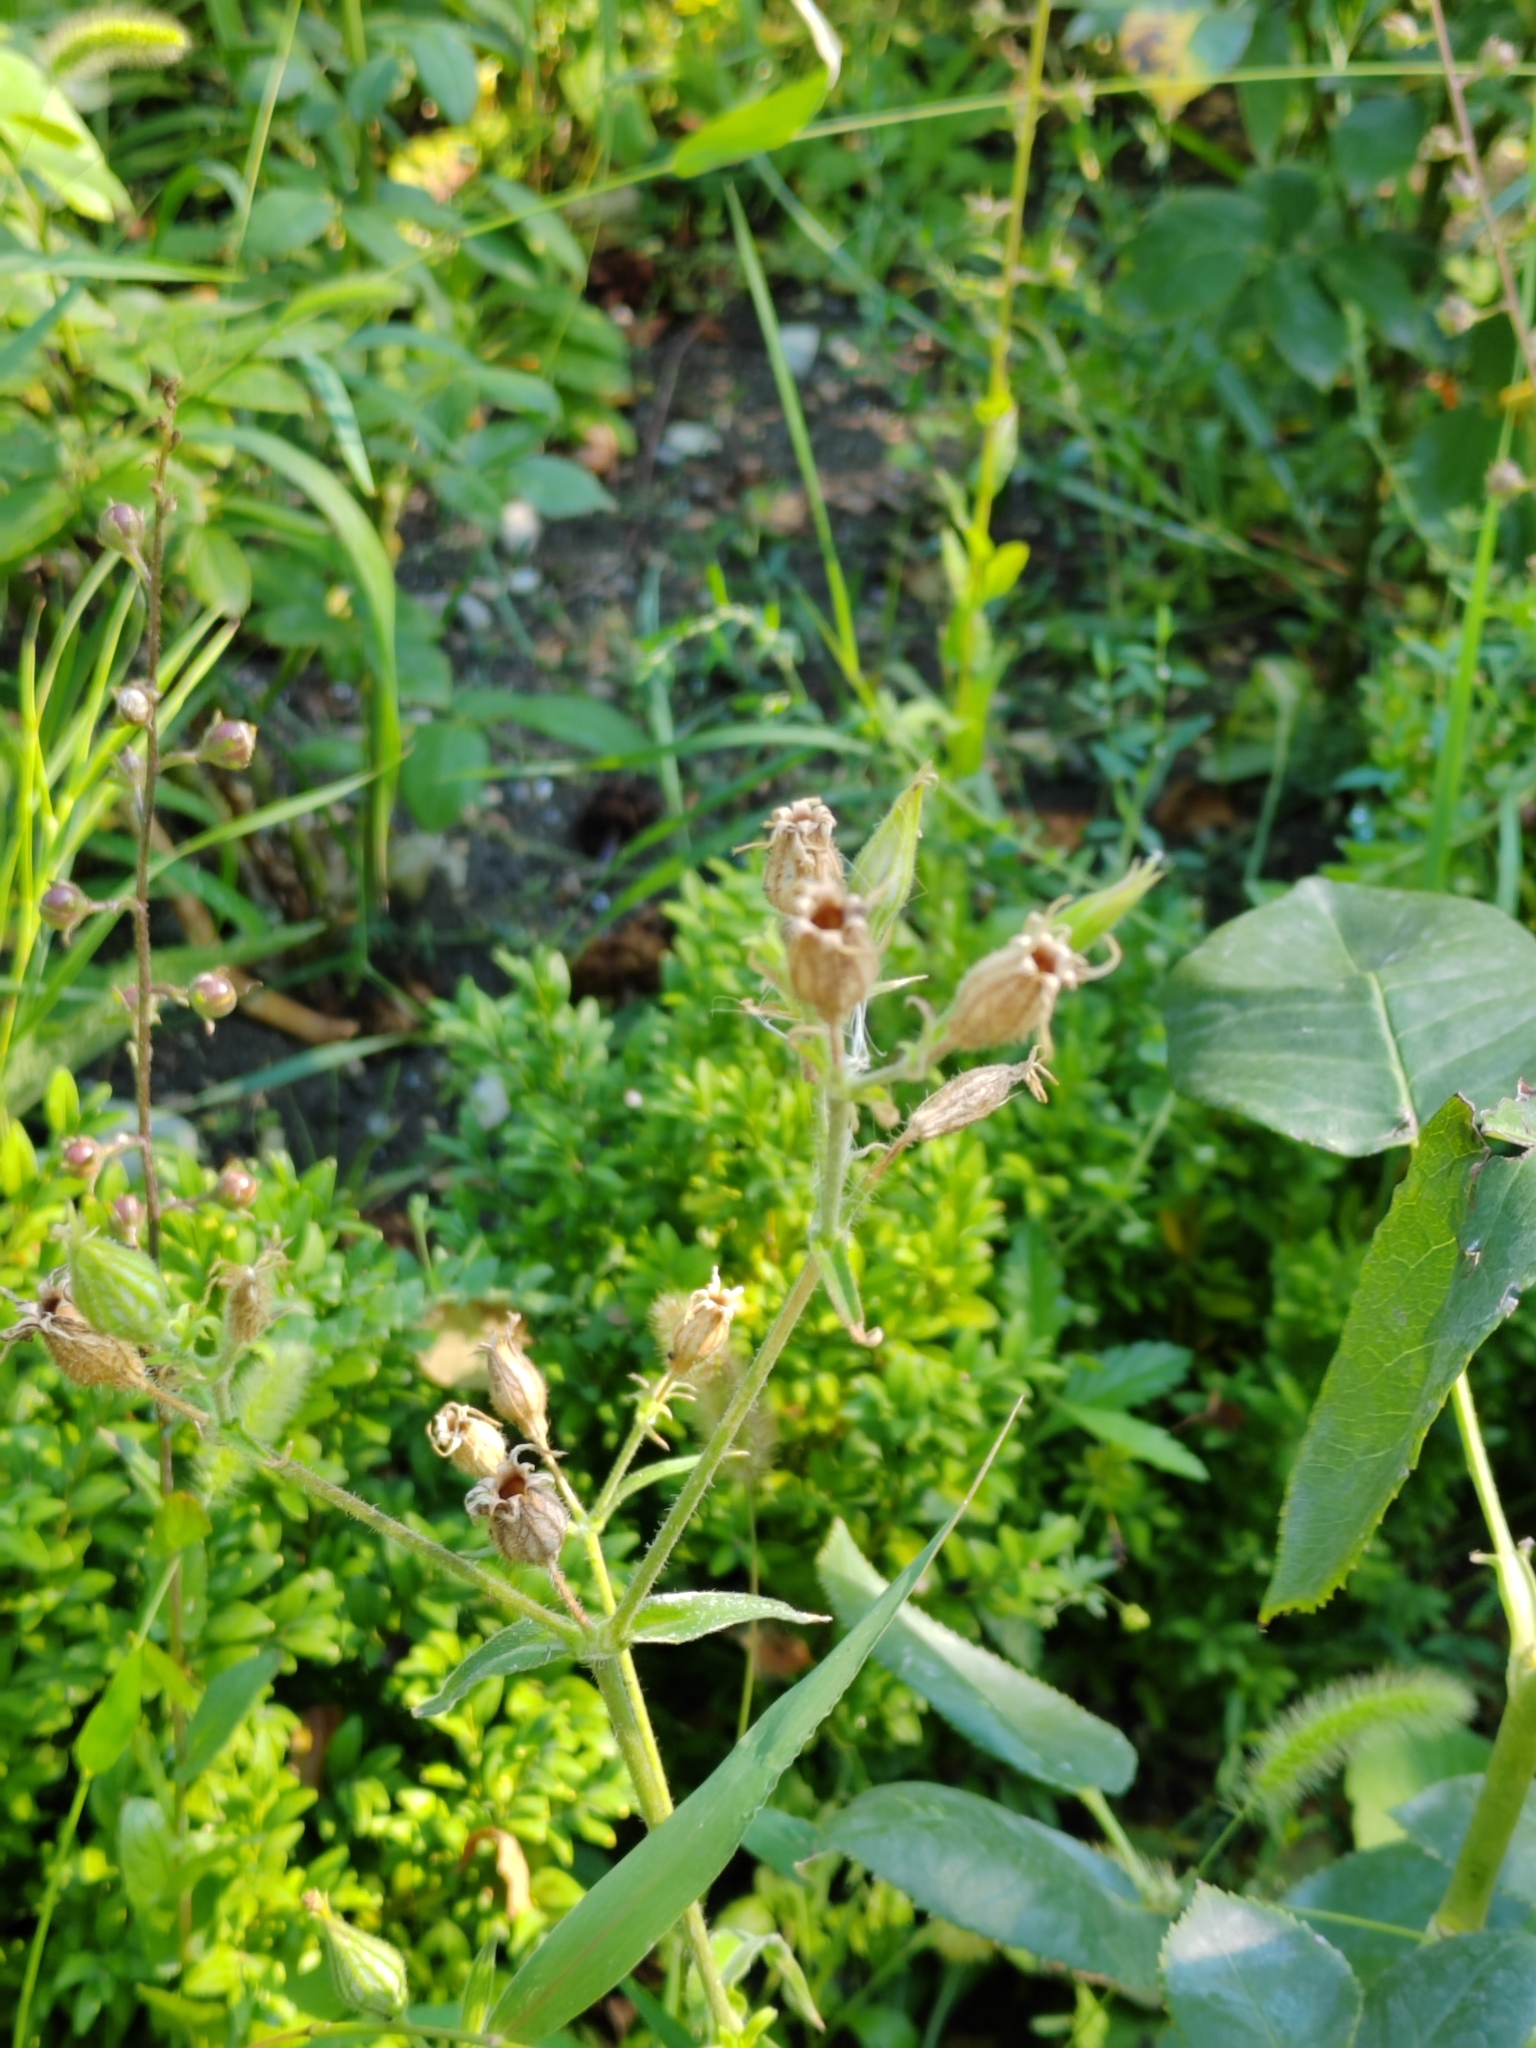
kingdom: Plantae
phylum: Tracheophyta
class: Magnoliopsida
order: Caryophyllales
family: Caryophyllaceae
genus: Silene
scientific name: Silene noctiflora
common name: Night-flowering catchfly
